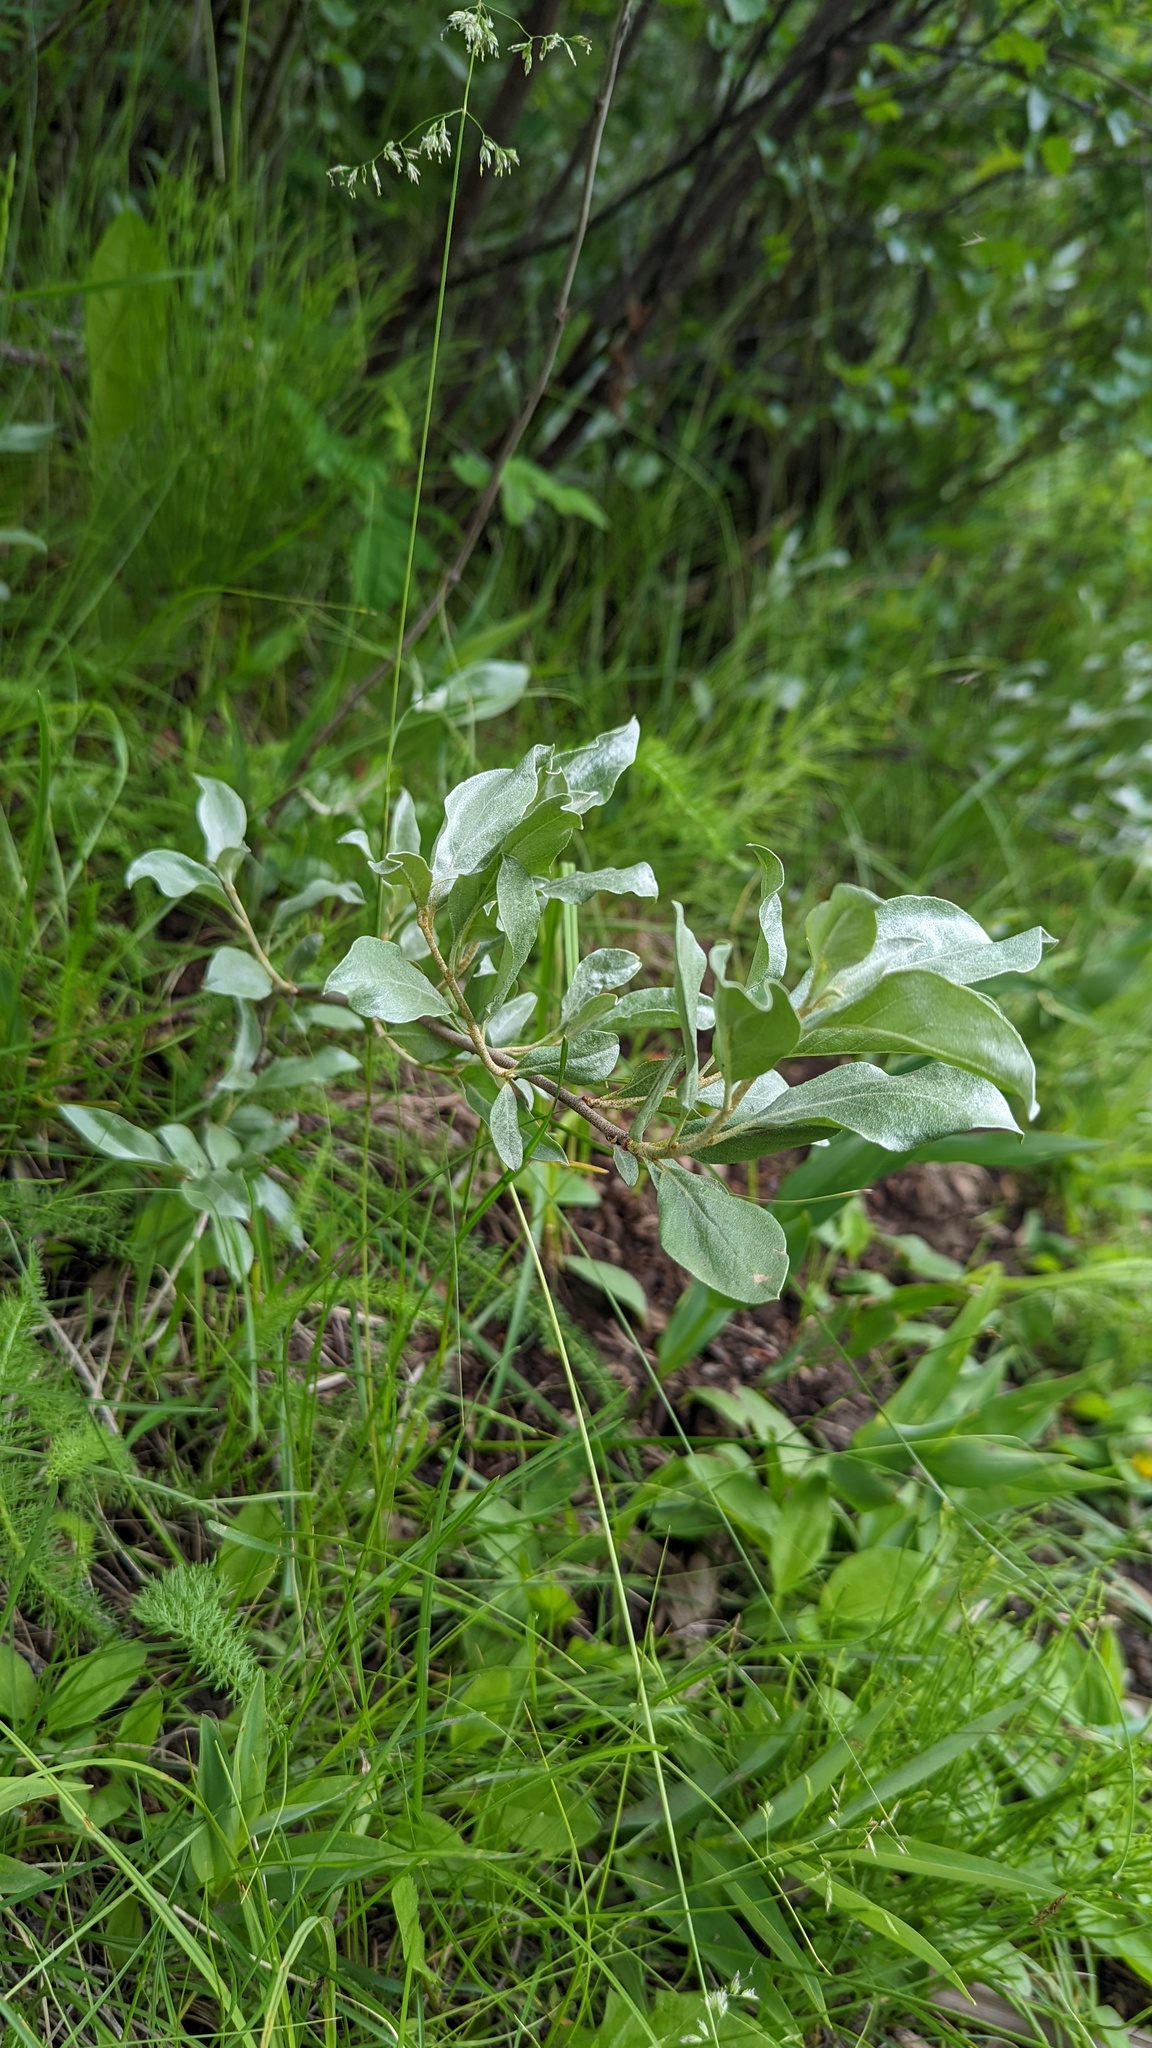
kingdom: Plantae
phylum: Tracheophyta
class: Magnoliopsida
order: Rosales
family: Elaeagnaceae
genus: Elaeagnus
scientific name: Elaeagnus commutata
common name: Silverberry
